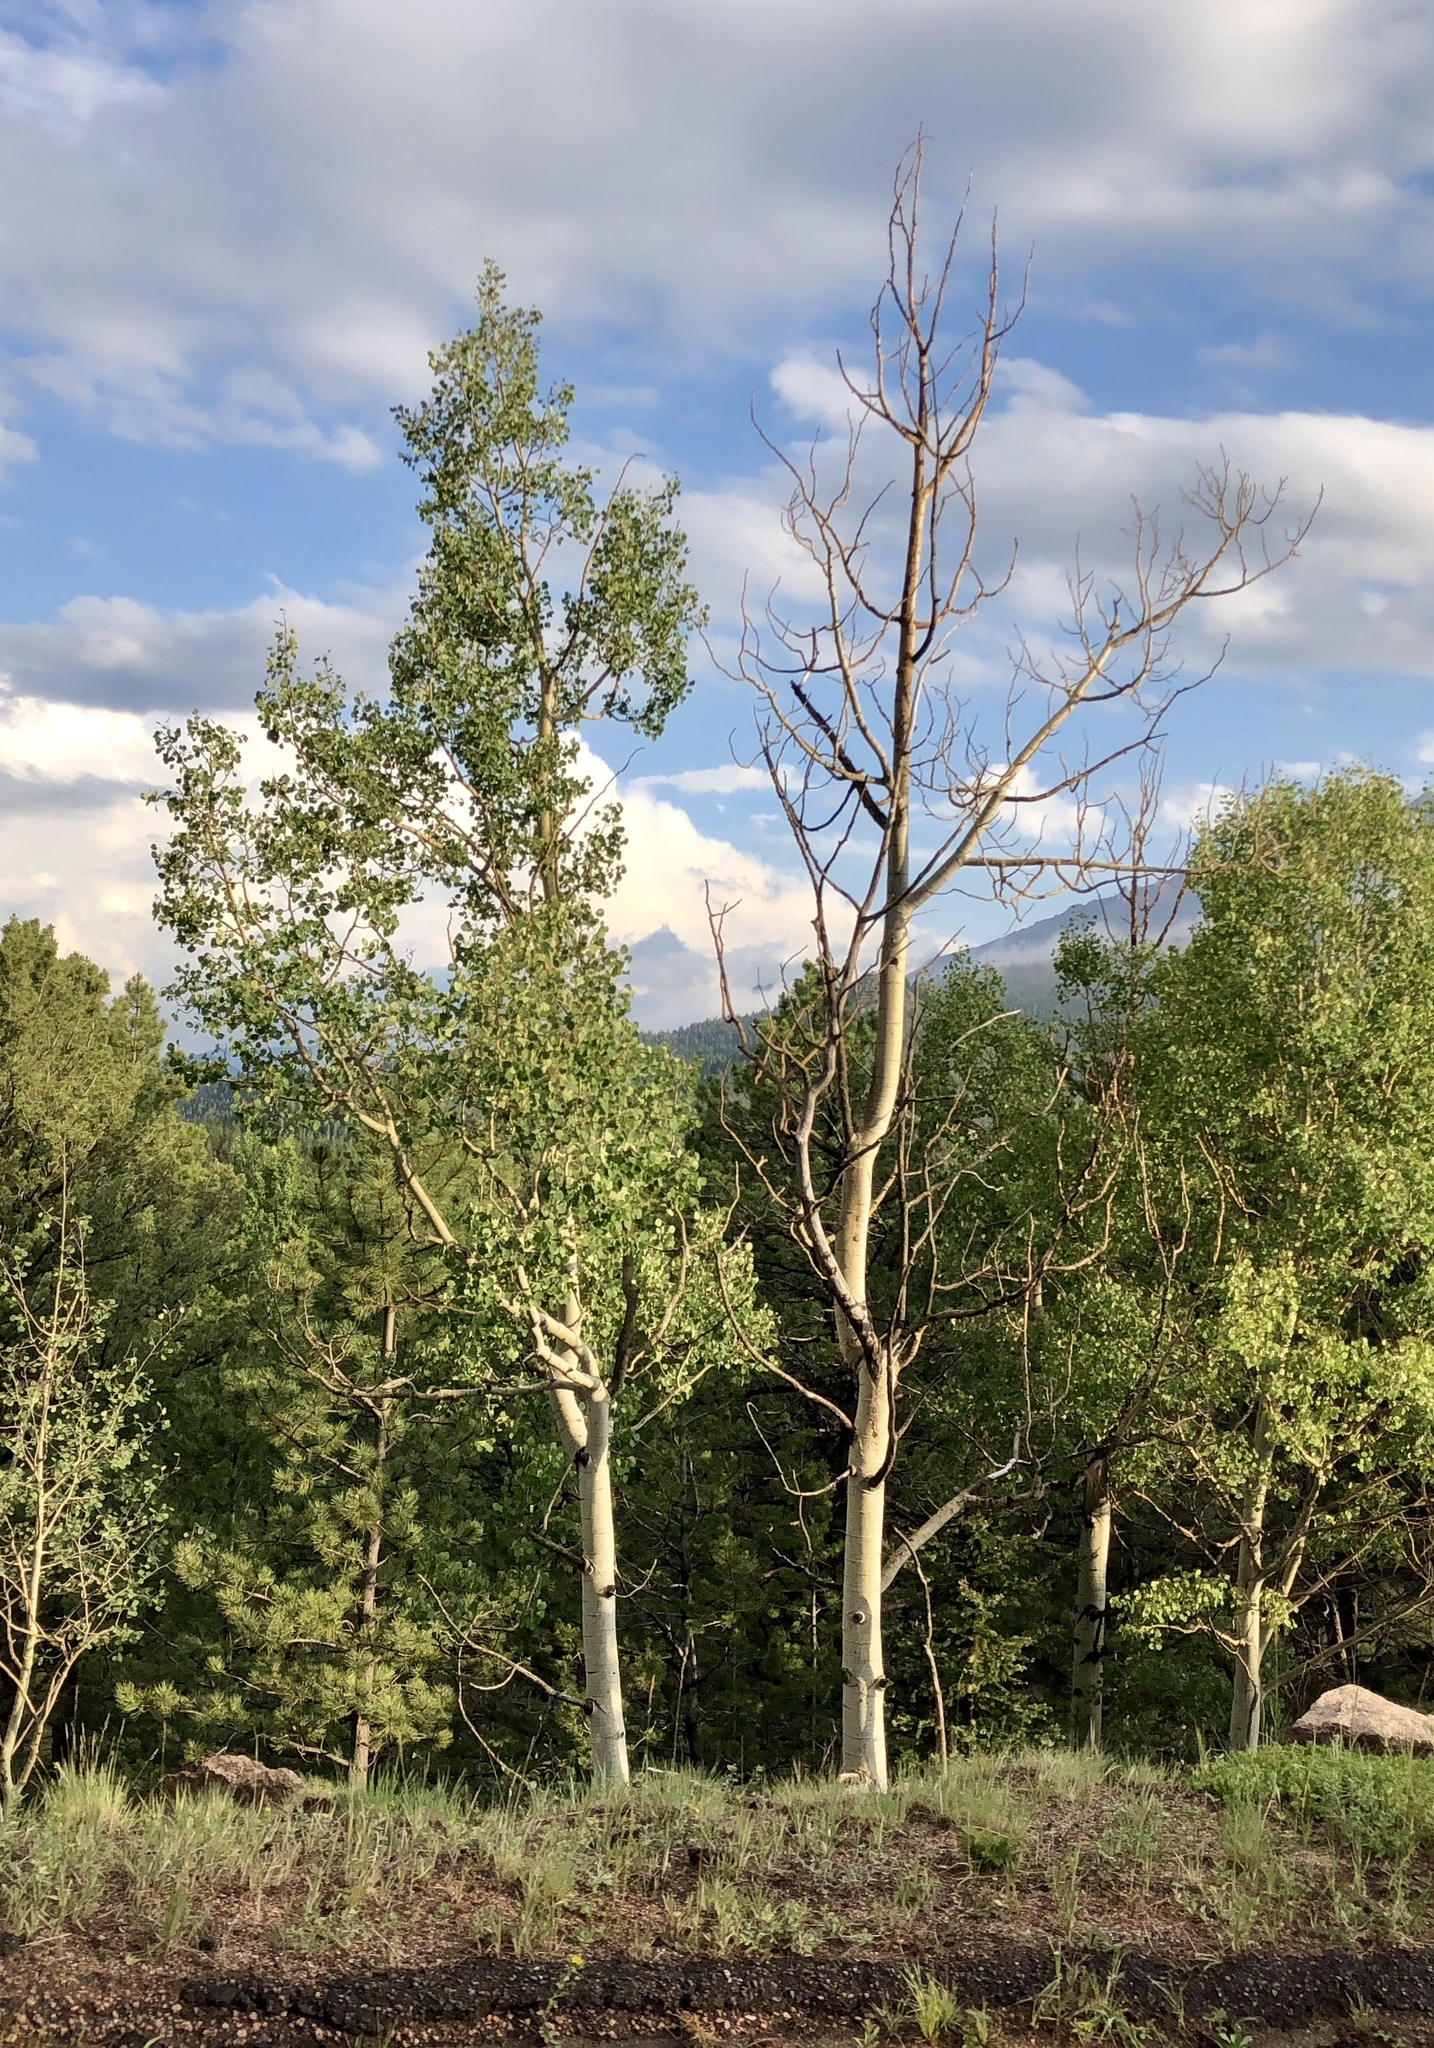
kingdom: Plantae
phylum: Tracheophyta
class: Magnoliopsida
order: Malpighiales
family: Salicaceae
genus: Populus
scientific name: Populus tremuloides
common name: Quaking aspen
